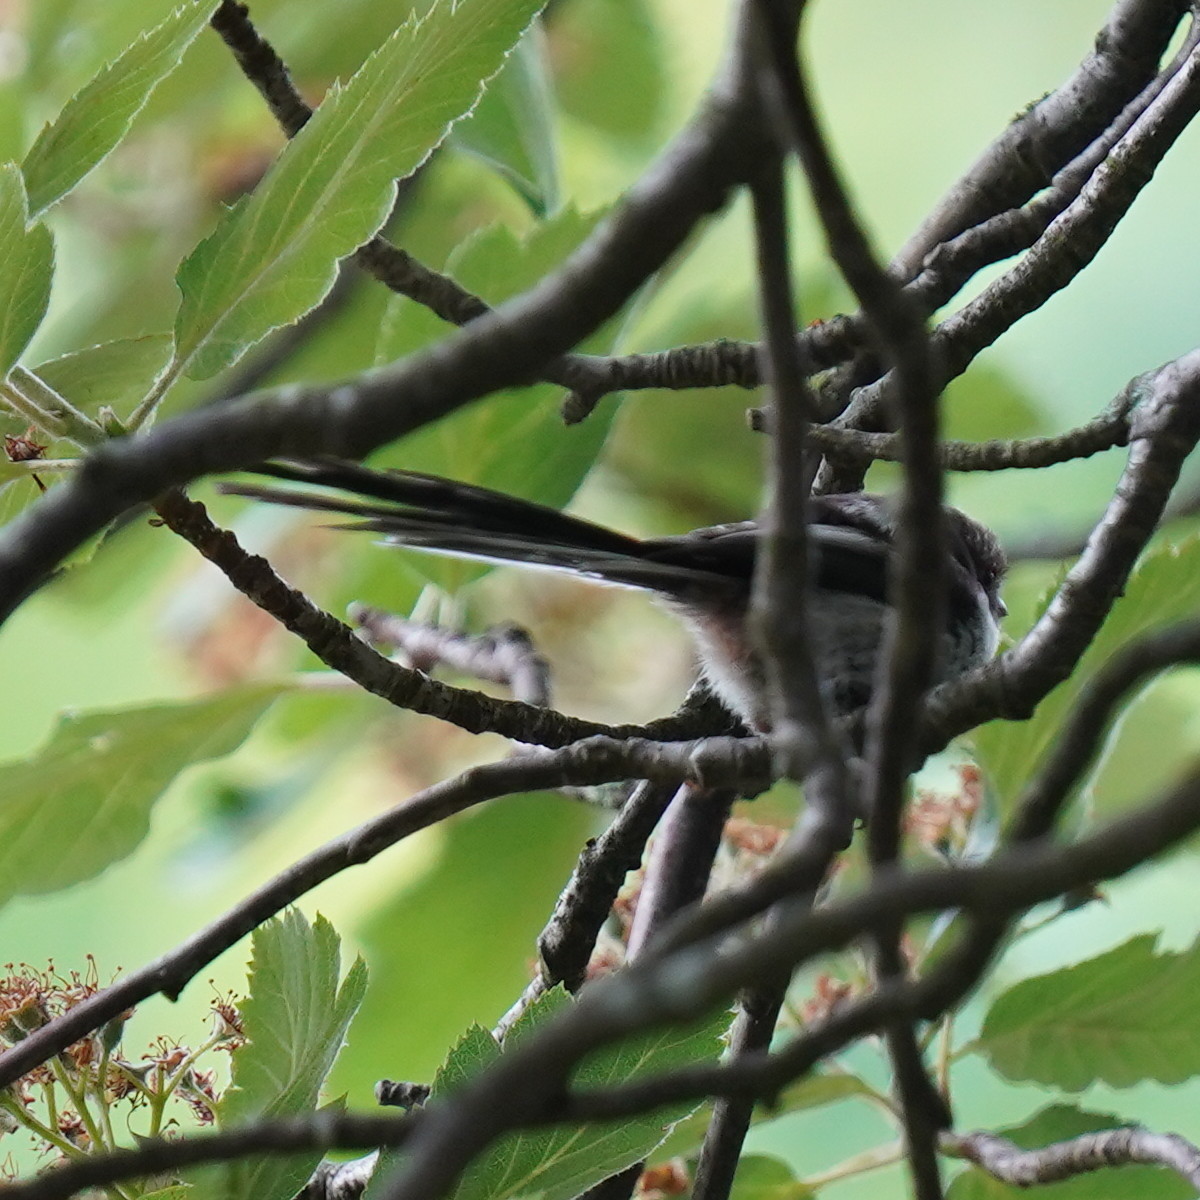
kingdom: Animalia
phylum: Chordata
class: Aves
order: Passeriformes
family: Aegithalidae
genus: Aegithalos
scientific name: Aegithalos caudatus
